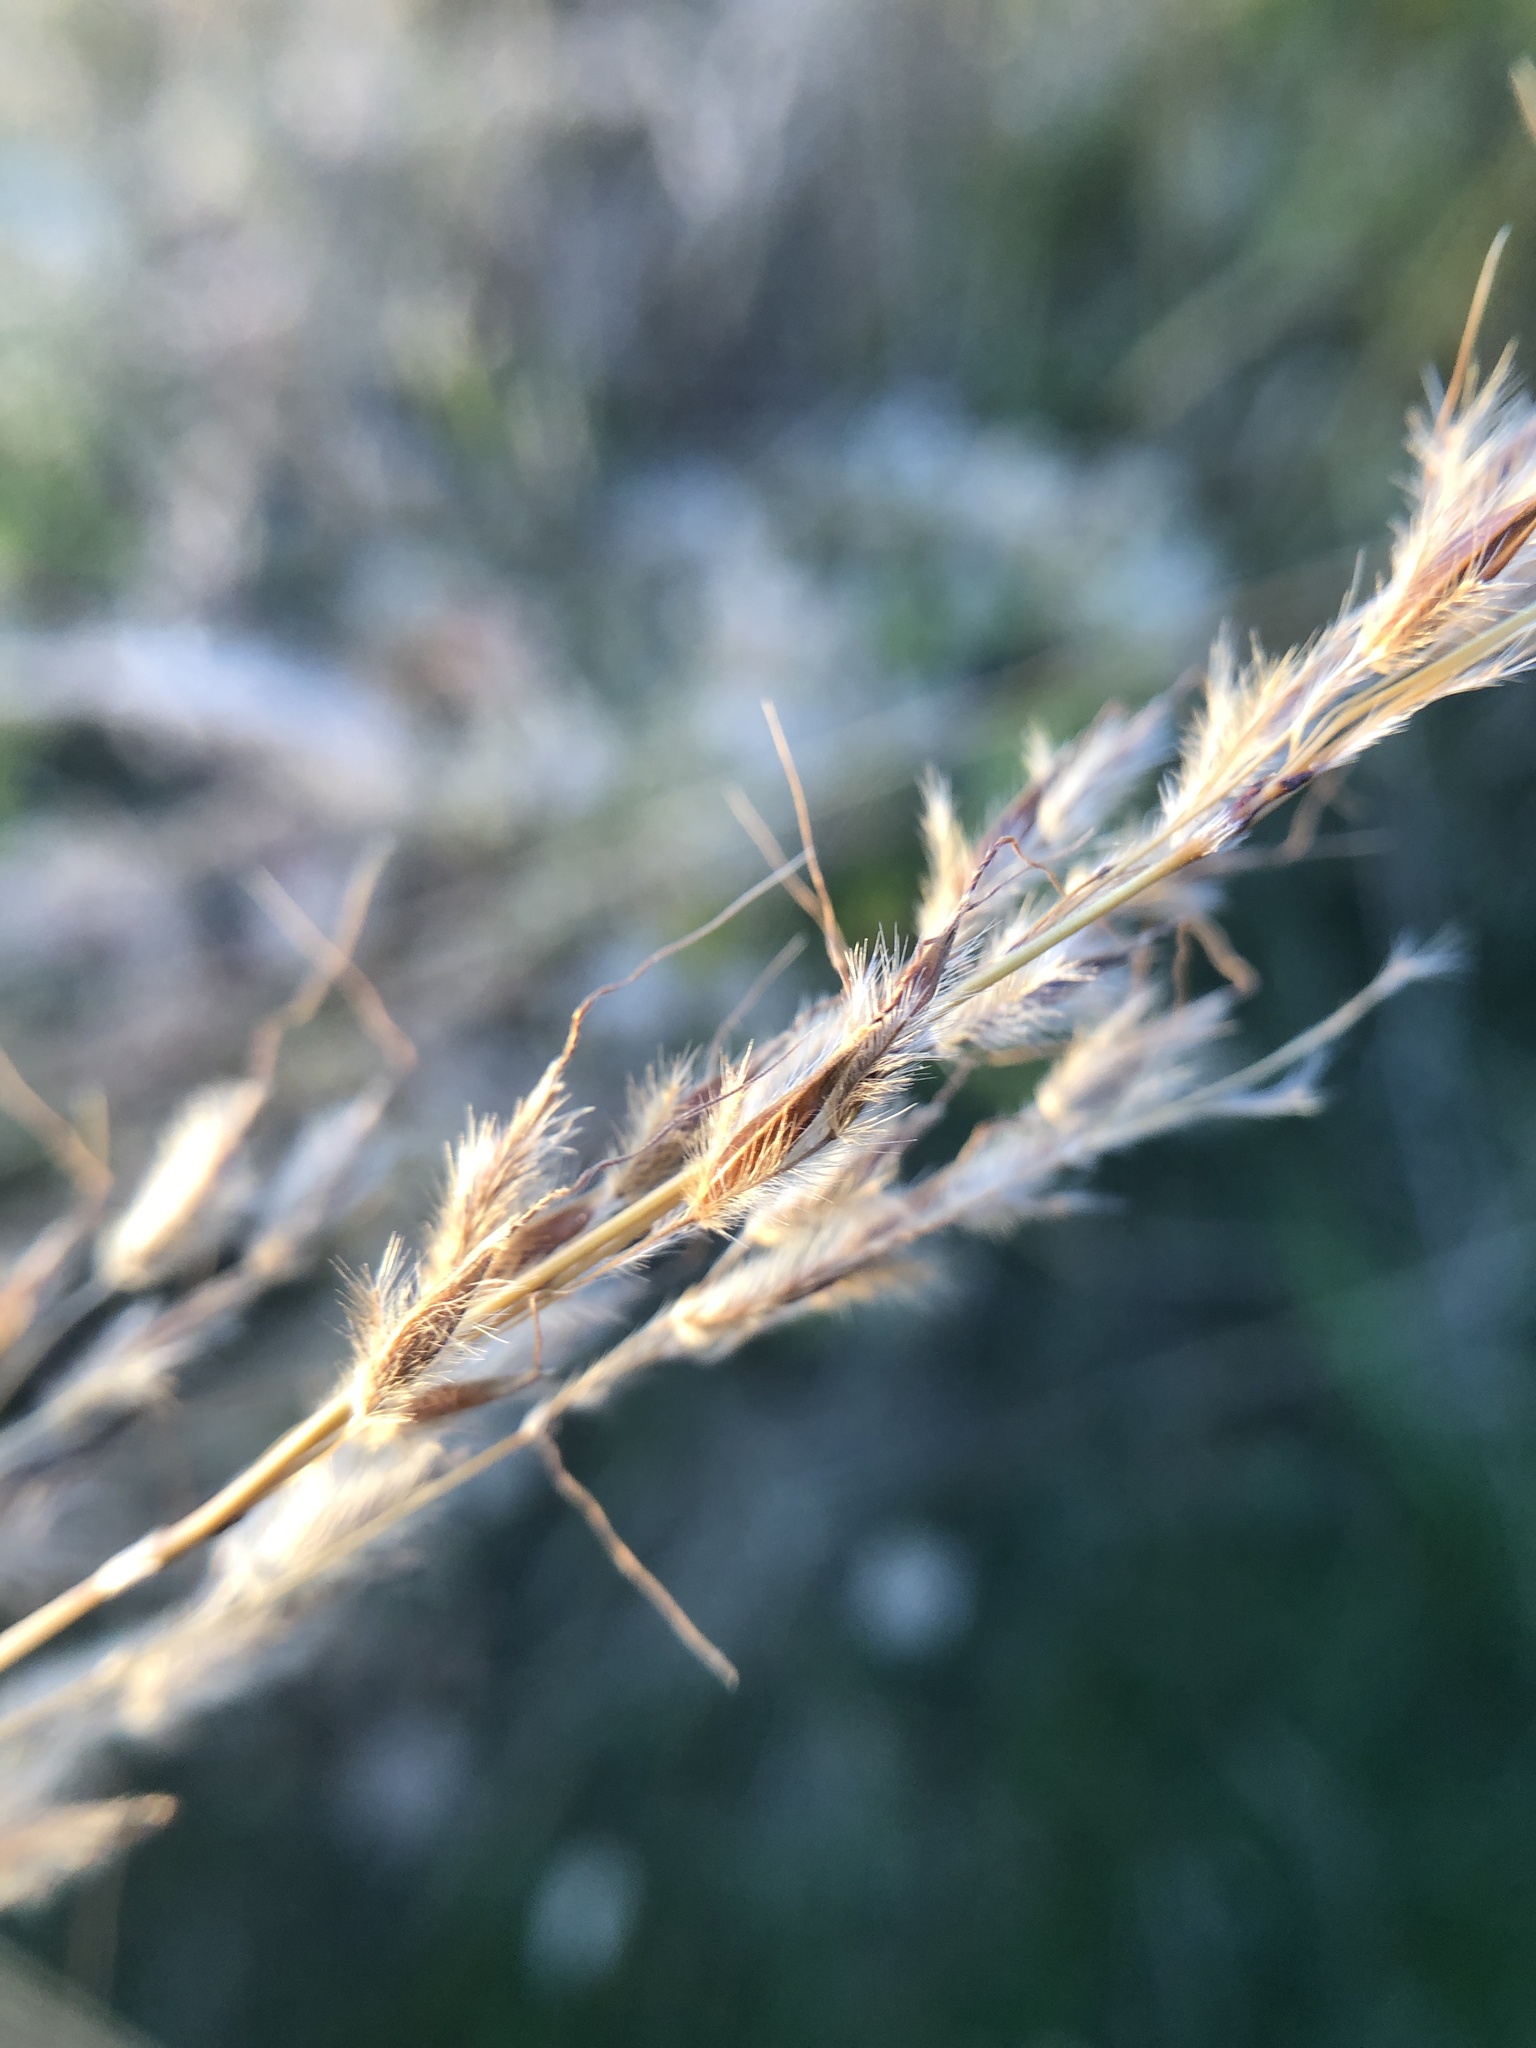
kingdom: Plantae
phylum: Tracheophyta
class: Liliopsida
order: Poales
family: Poaceae
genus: Sorghastrum
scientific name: Sorghastrum nutans
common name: Indian grass
